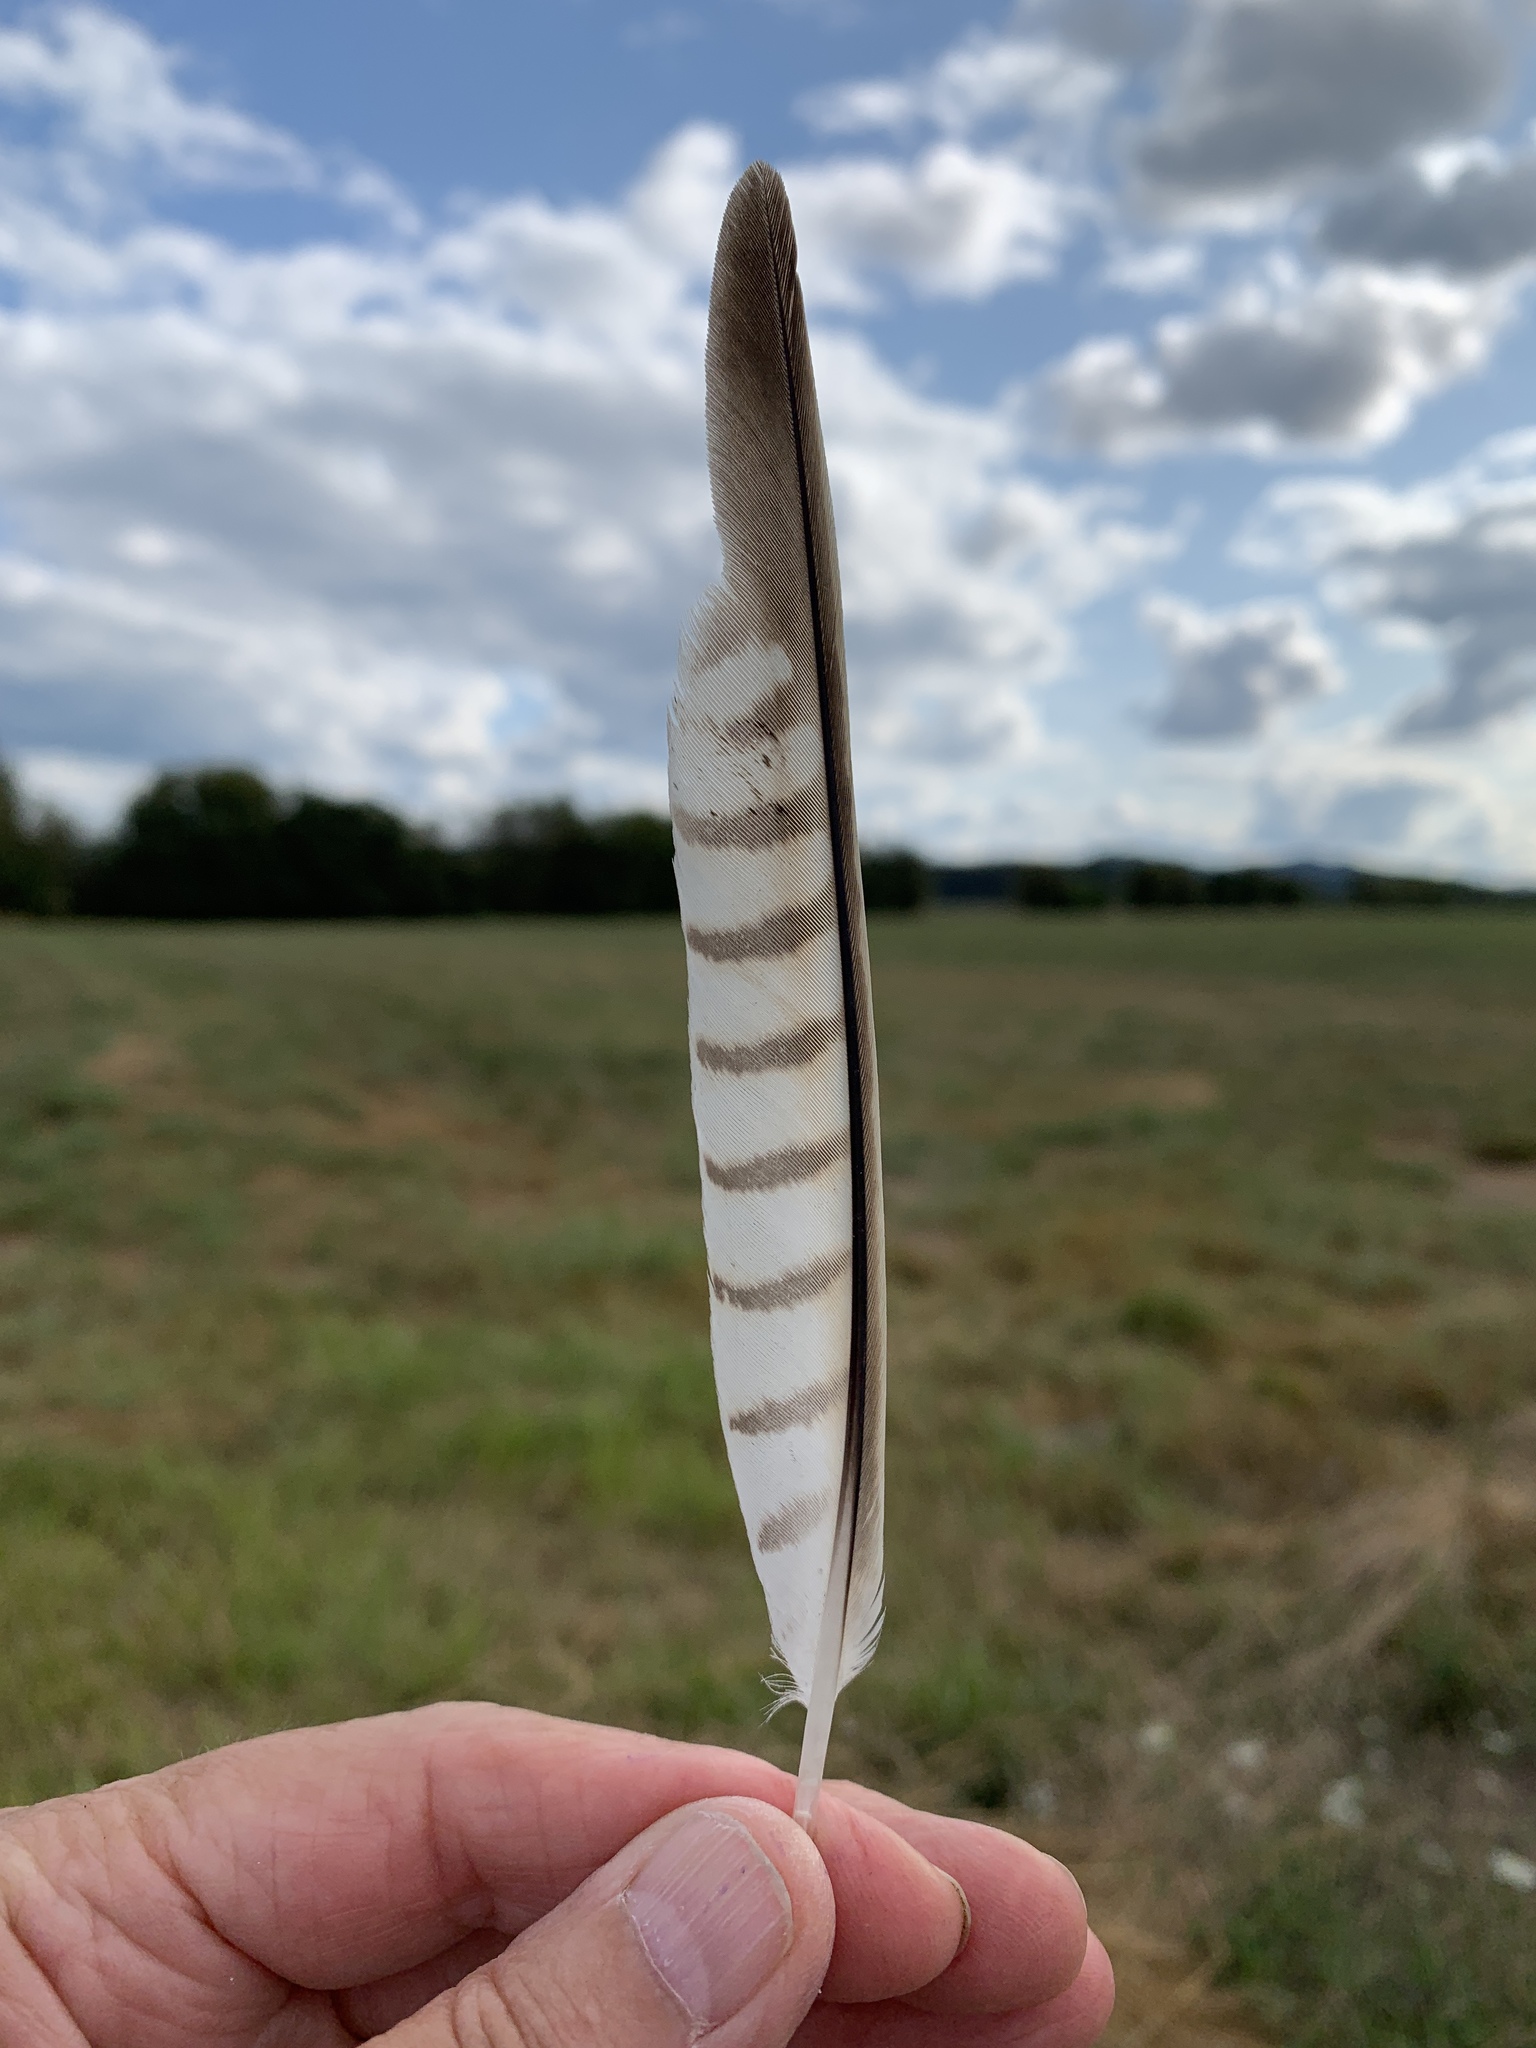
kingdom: Animalia
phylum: Chordata
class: Aves
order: Falconiformes
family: Falconidae
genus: Falco
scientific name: Falco sparverius
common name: American kestrel
